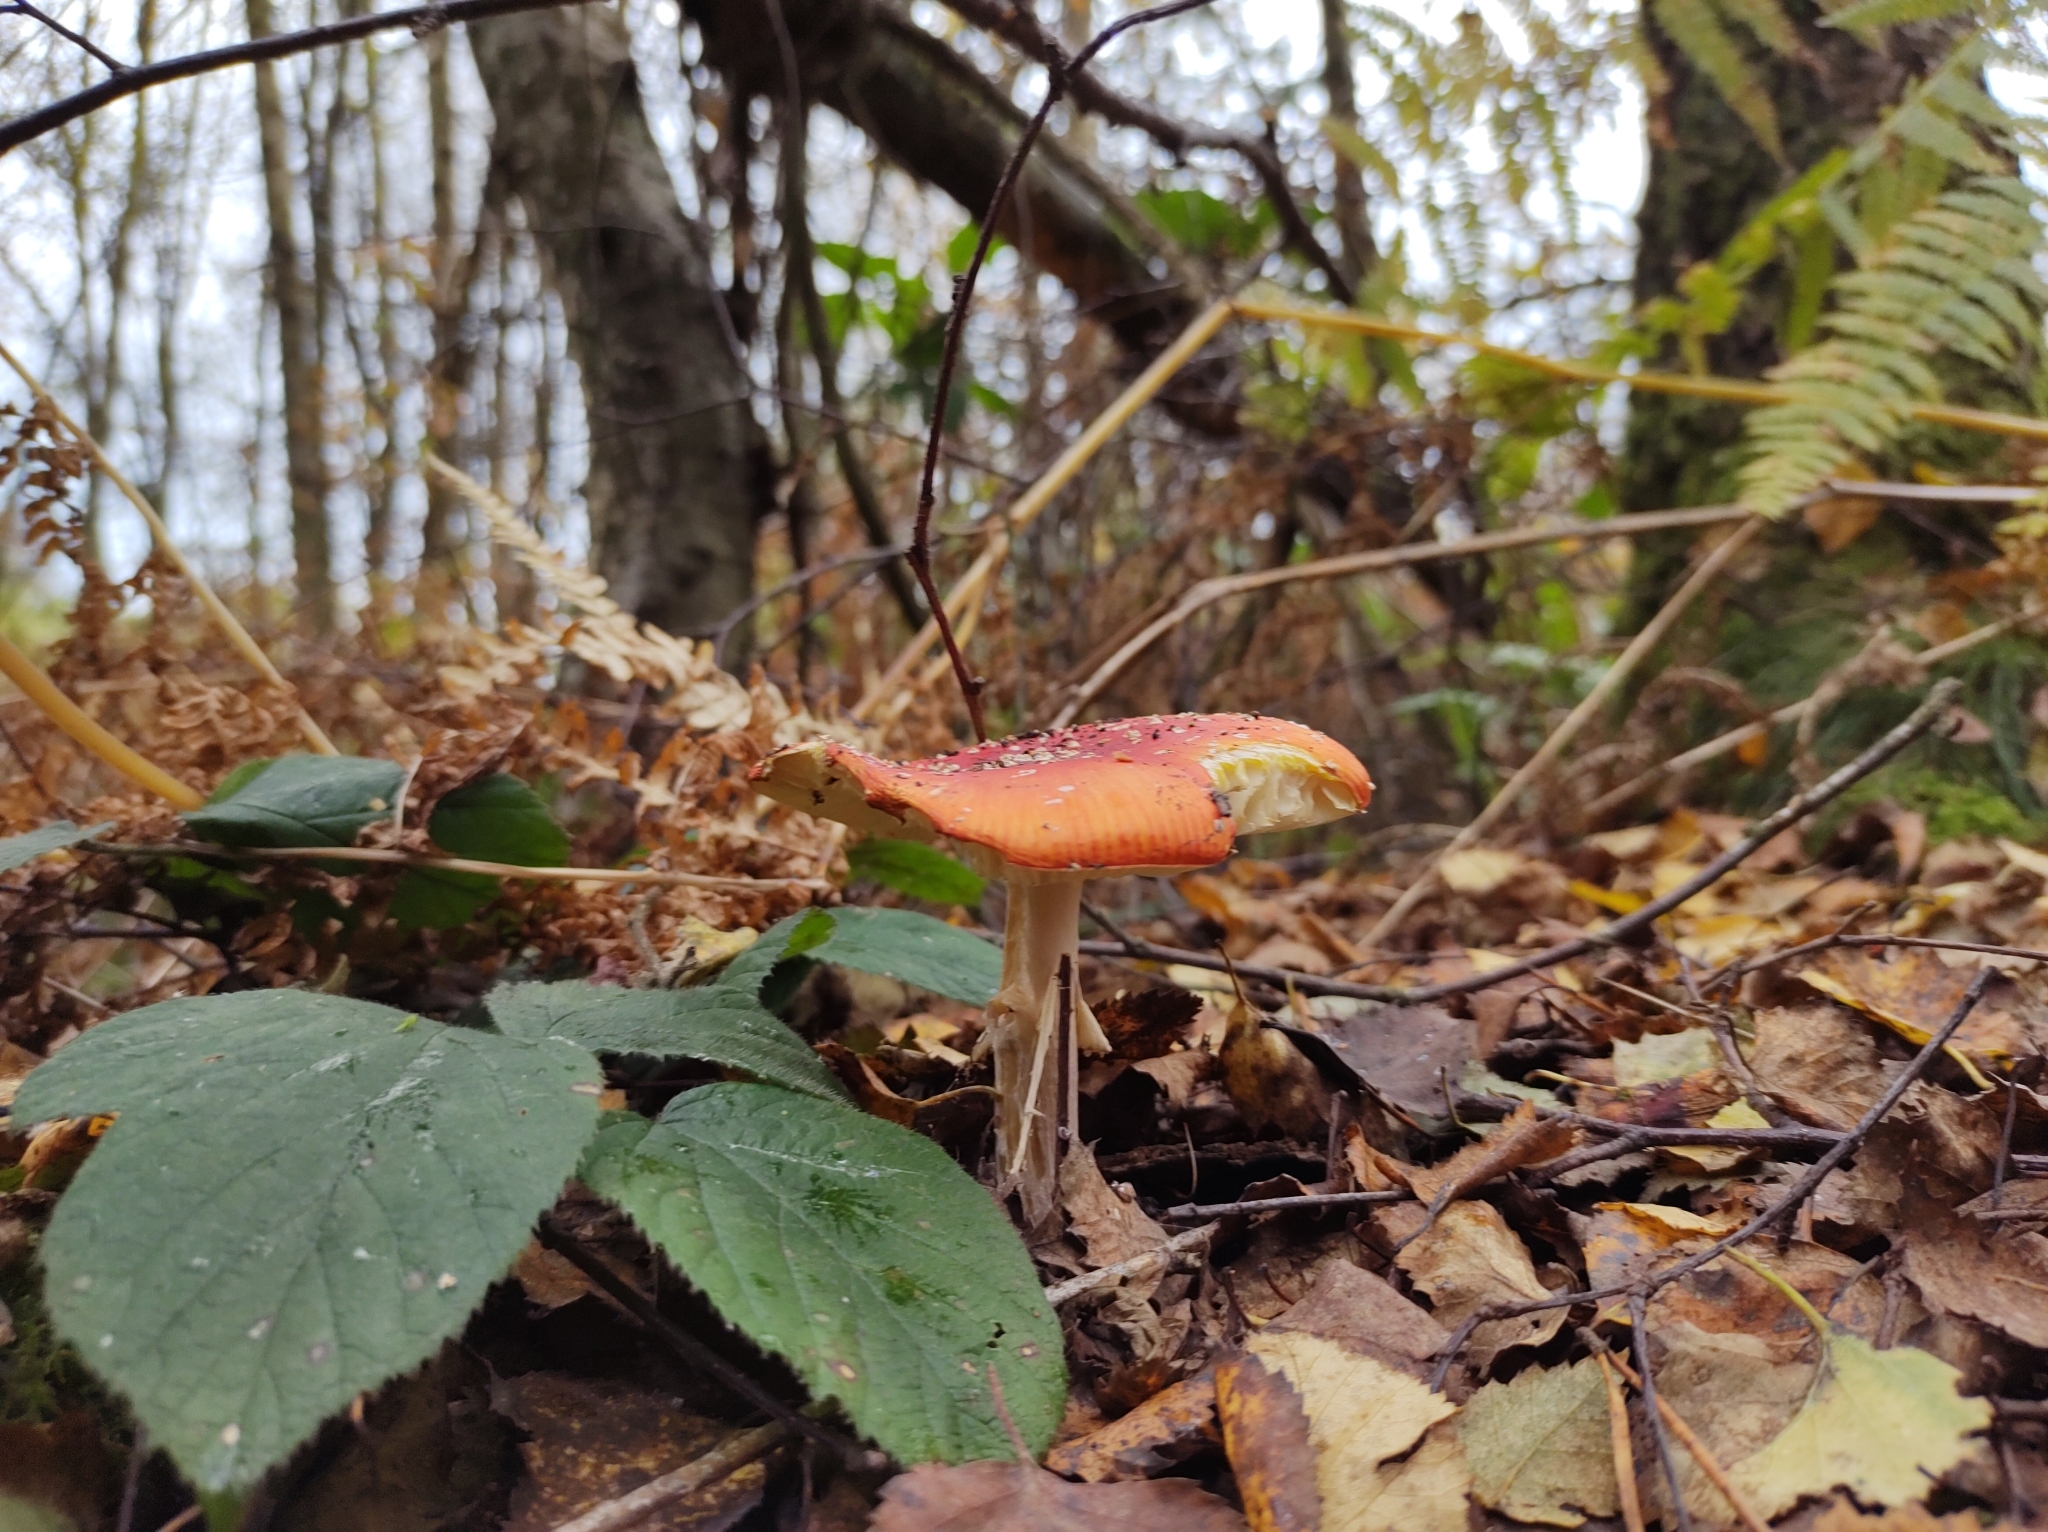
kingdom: Fungi
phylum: Basidiomycota
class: Agaricomycetes
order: Agaricales
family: Amanitaceae
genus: Amanita
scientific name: Amanita muscaria
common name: Fly agaric
